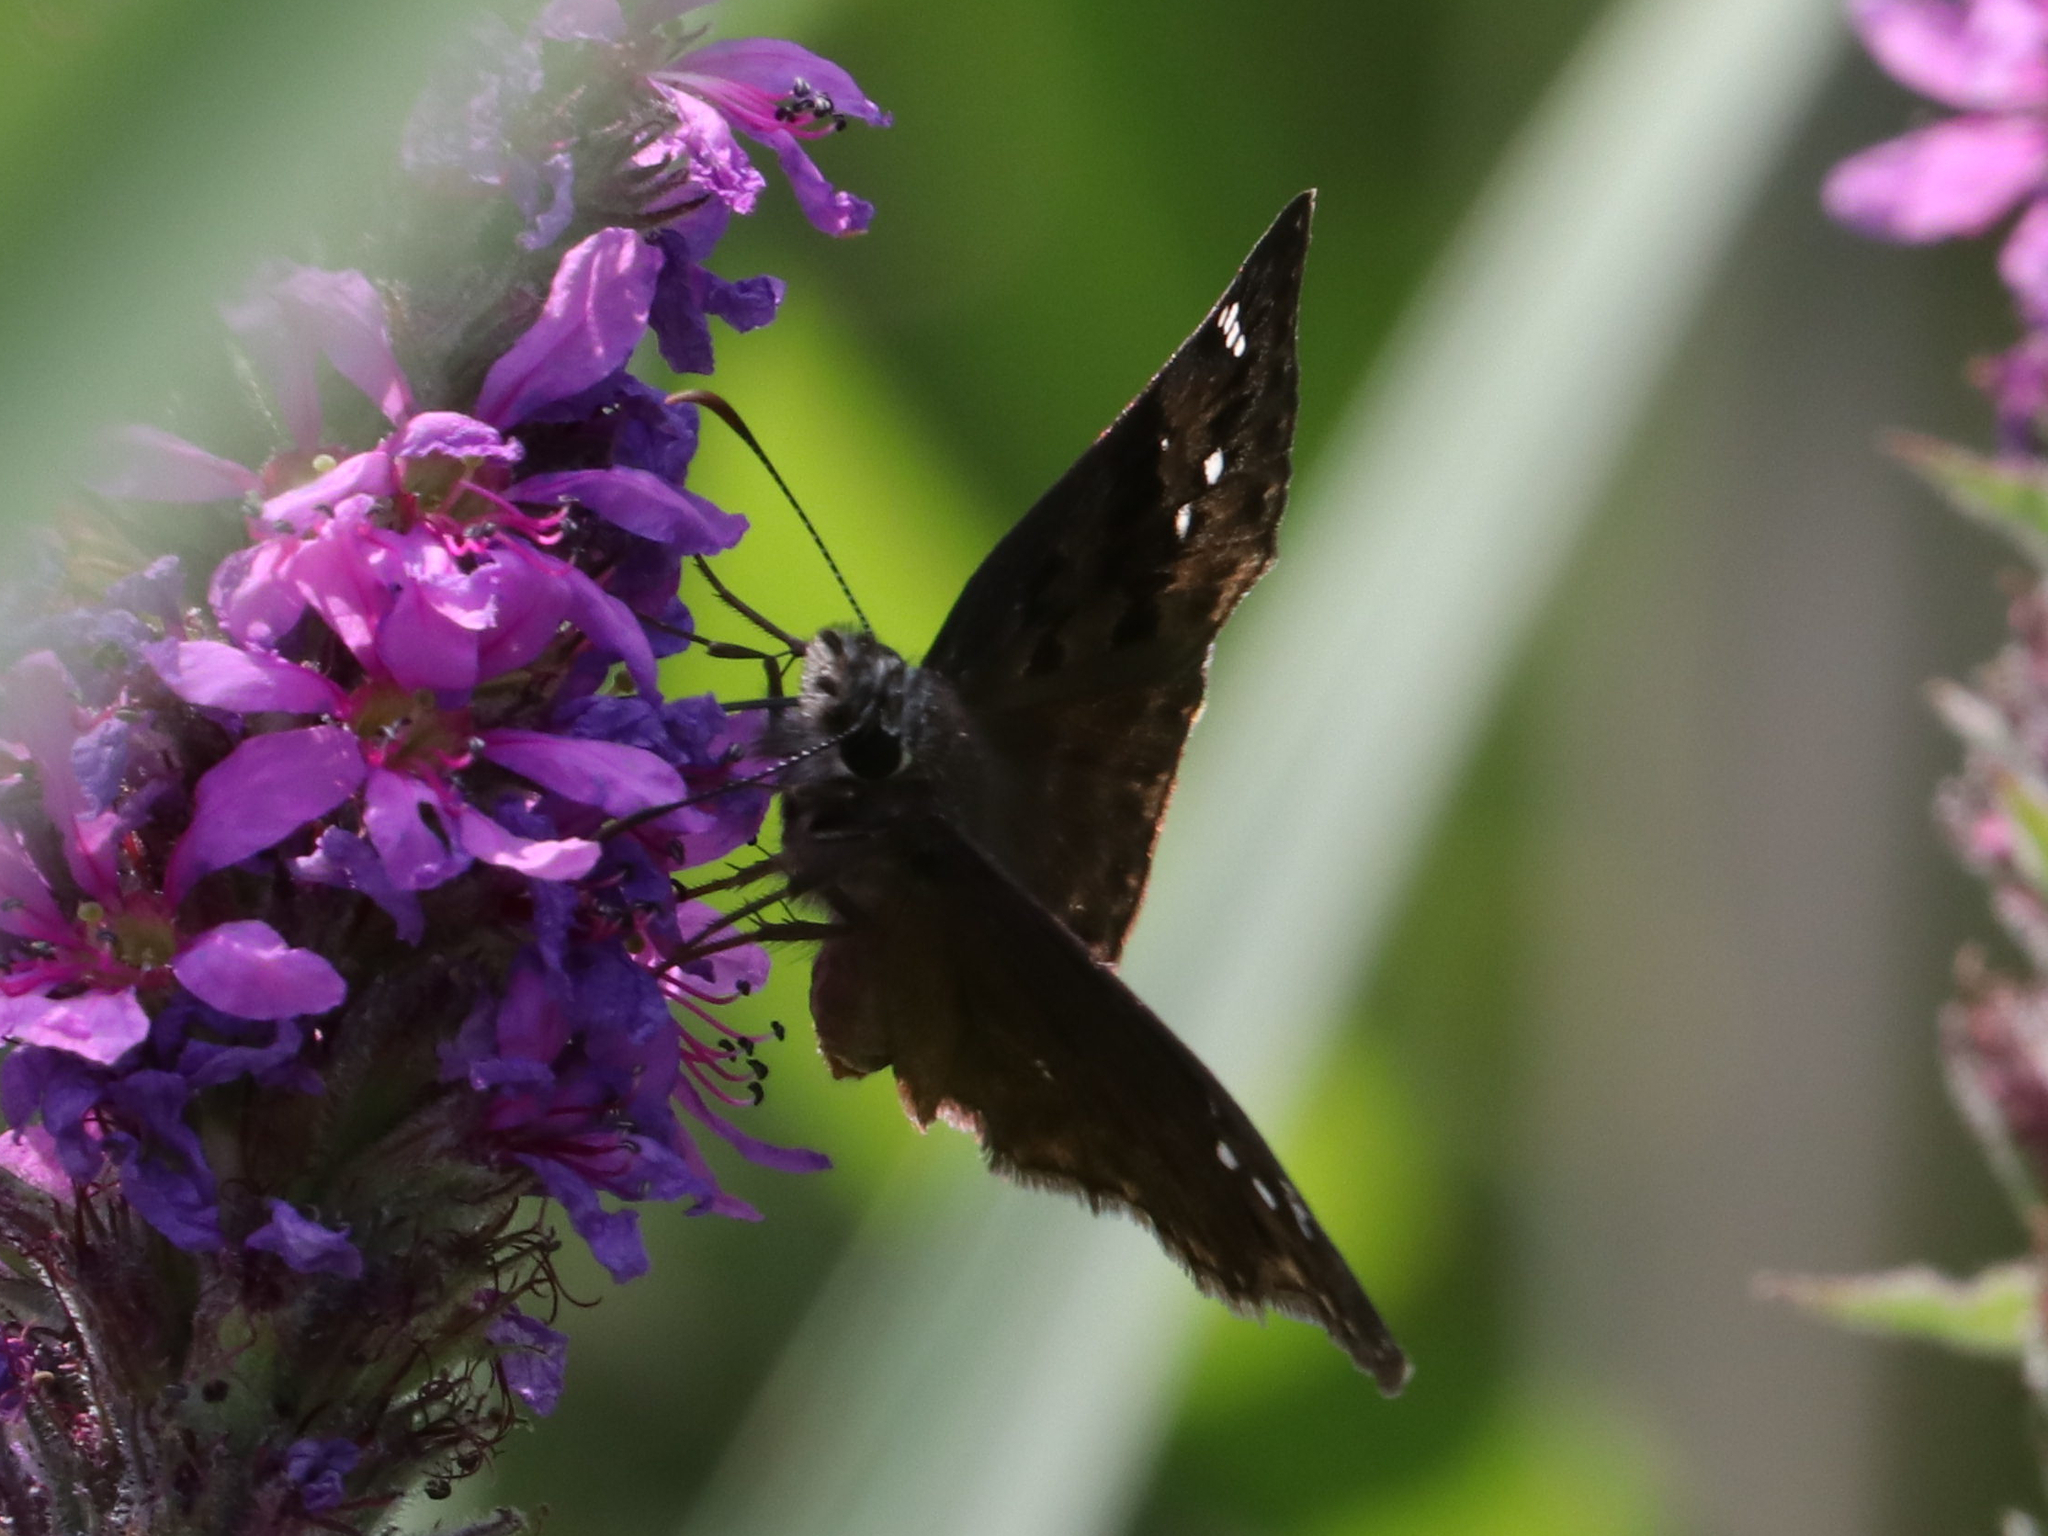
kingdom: Animalia
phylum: Arthropoda
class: Insecta
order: Lepidoptera
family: Hesperiidae
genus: Erynnis
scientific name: Erynnis horatius
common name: Horace's duskywing
